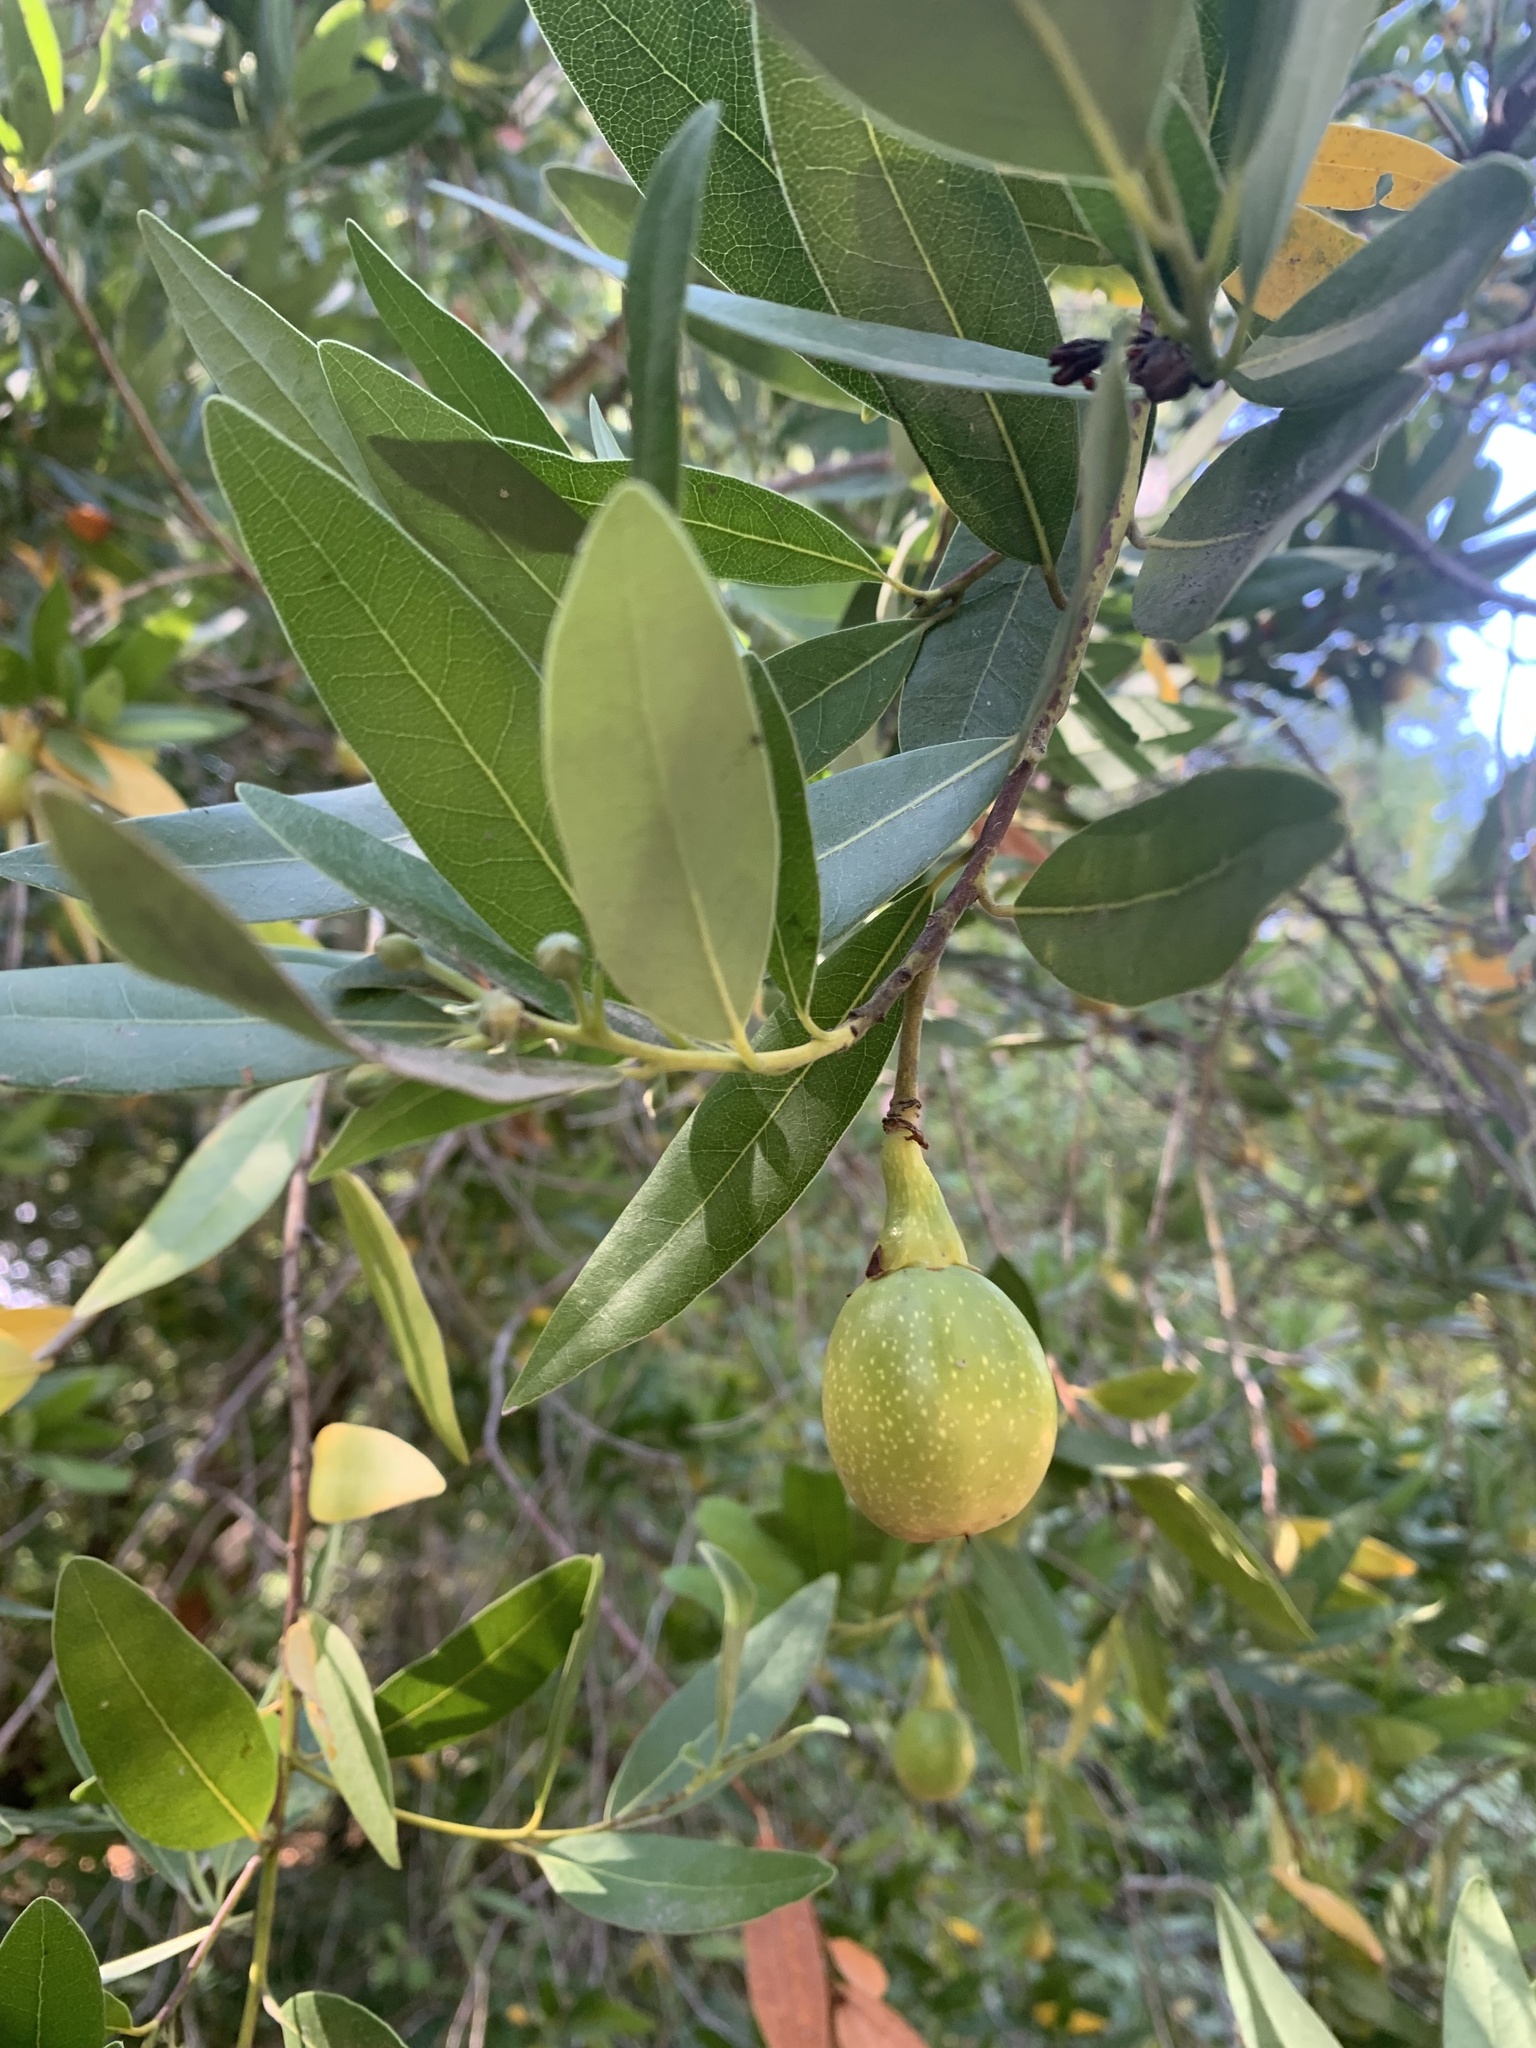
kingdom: Plantae
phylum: Tracheophyta
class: Magnoliopsida
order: Laurales
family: Lauraceae
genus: Umbellularia
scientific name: Umbellularia californica
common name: California bay
